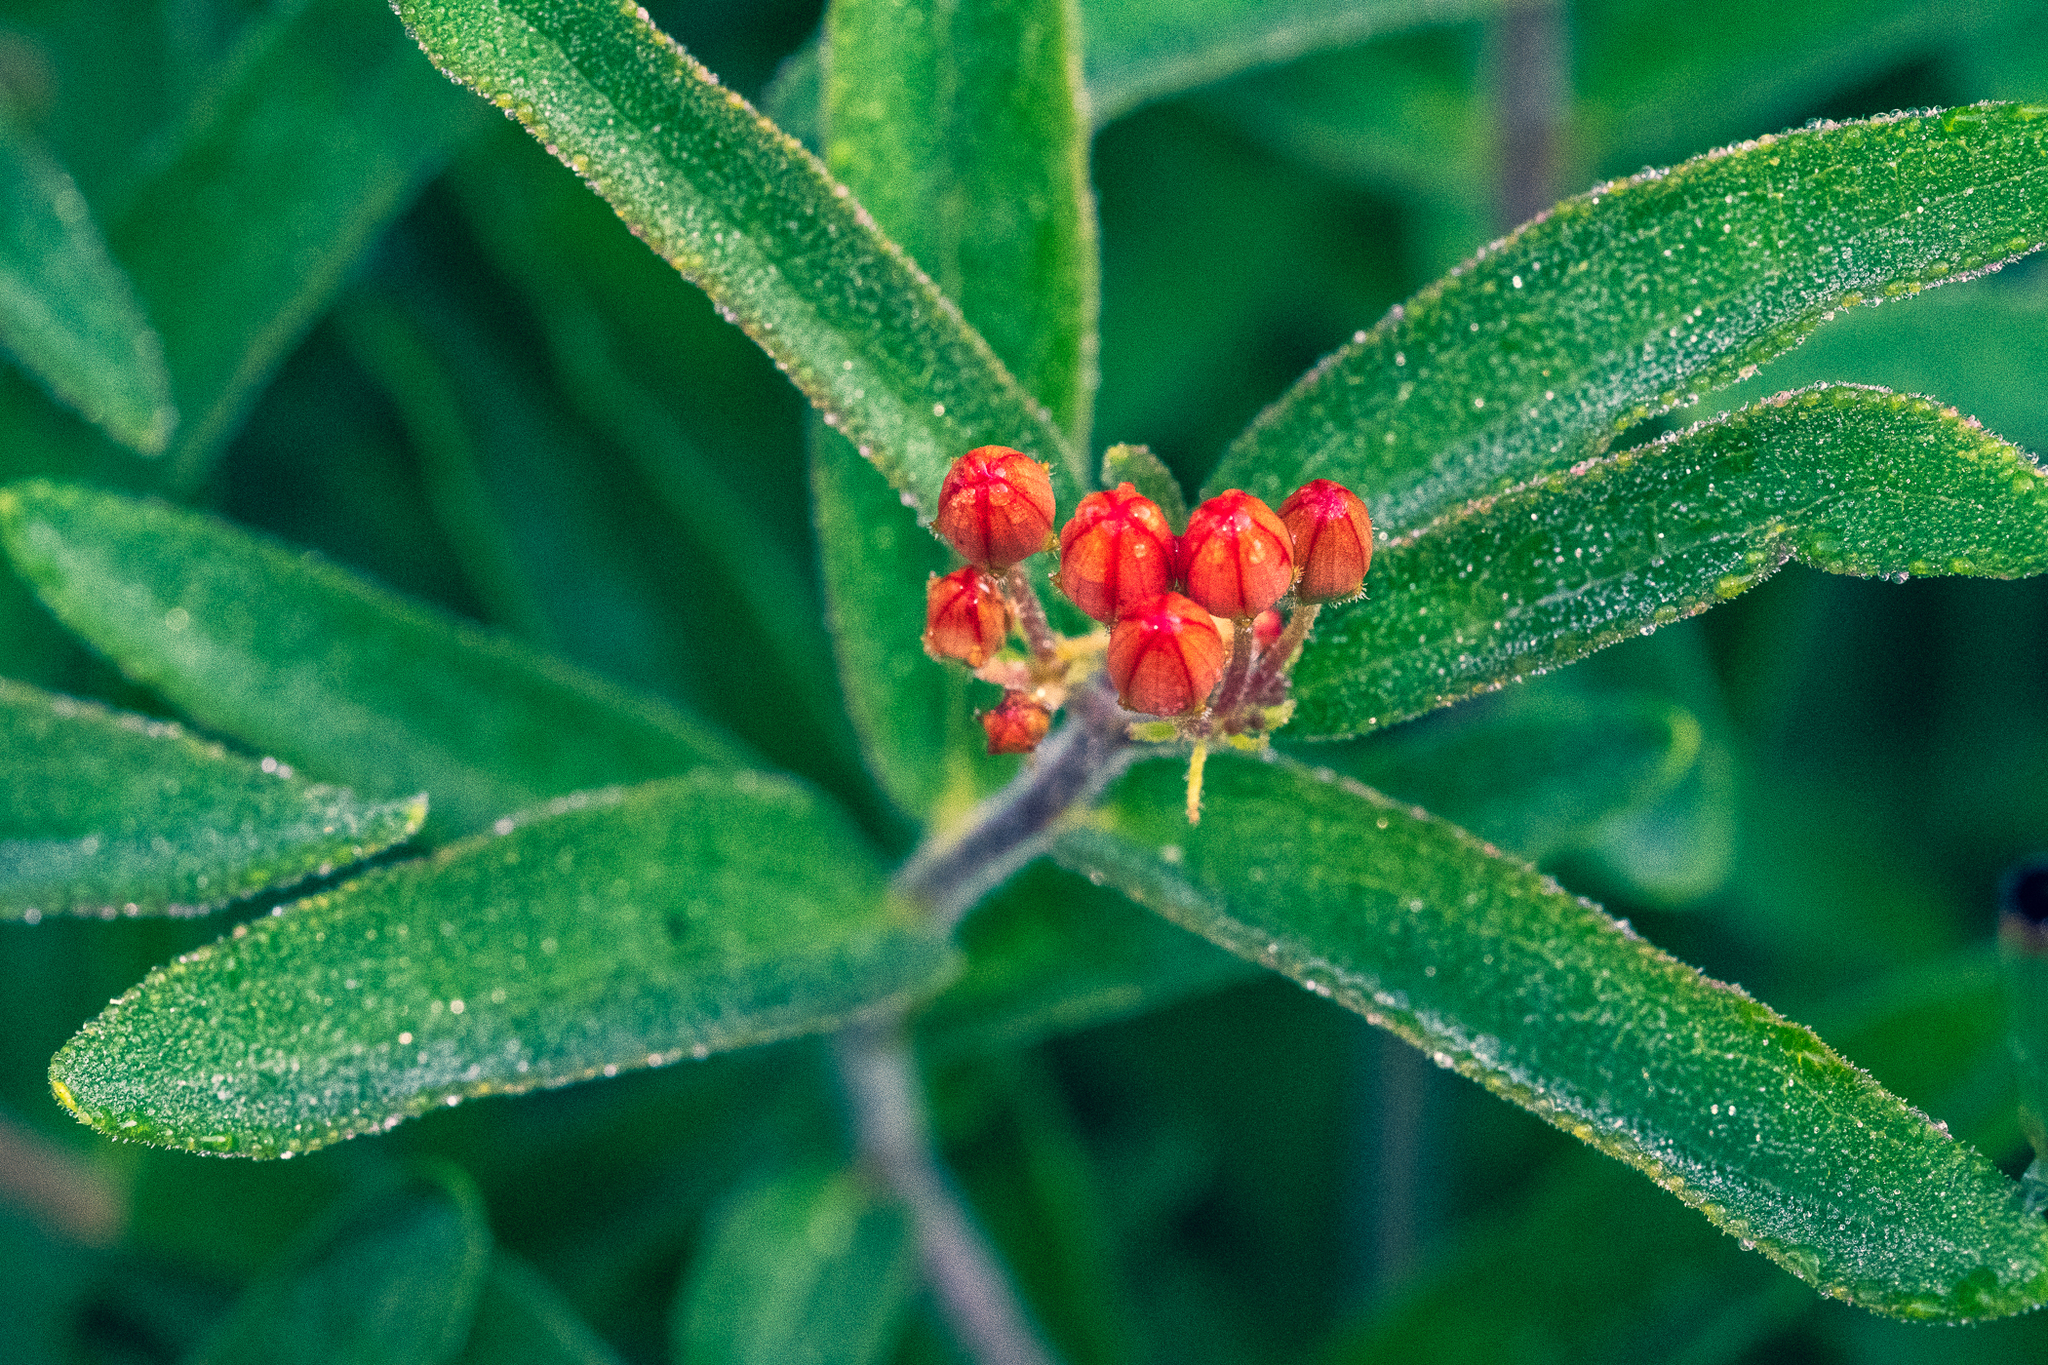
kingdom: Plantae
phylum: Tracheophyta
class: Magnoliopsida
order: Gentianales
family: Apocynaceae
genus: Asclepias
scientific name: Asclepias tuberosa
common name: Butterfly milkweed
